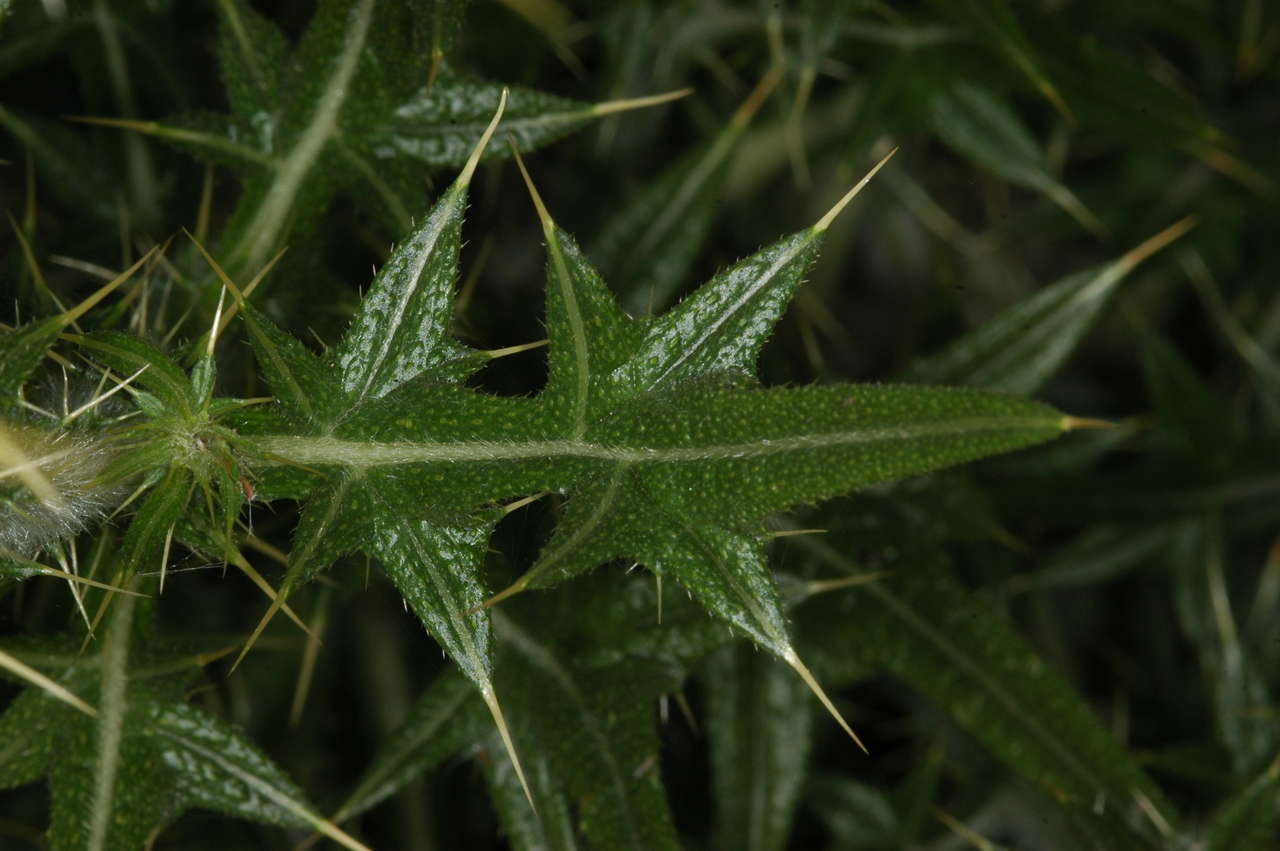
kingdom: Plantae
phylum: Tracheophyta
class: Magnoliopsida
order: Asterales
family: Asteraceae
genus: Cirsium
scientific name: Cirsium vulgare
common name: Bull thistle
